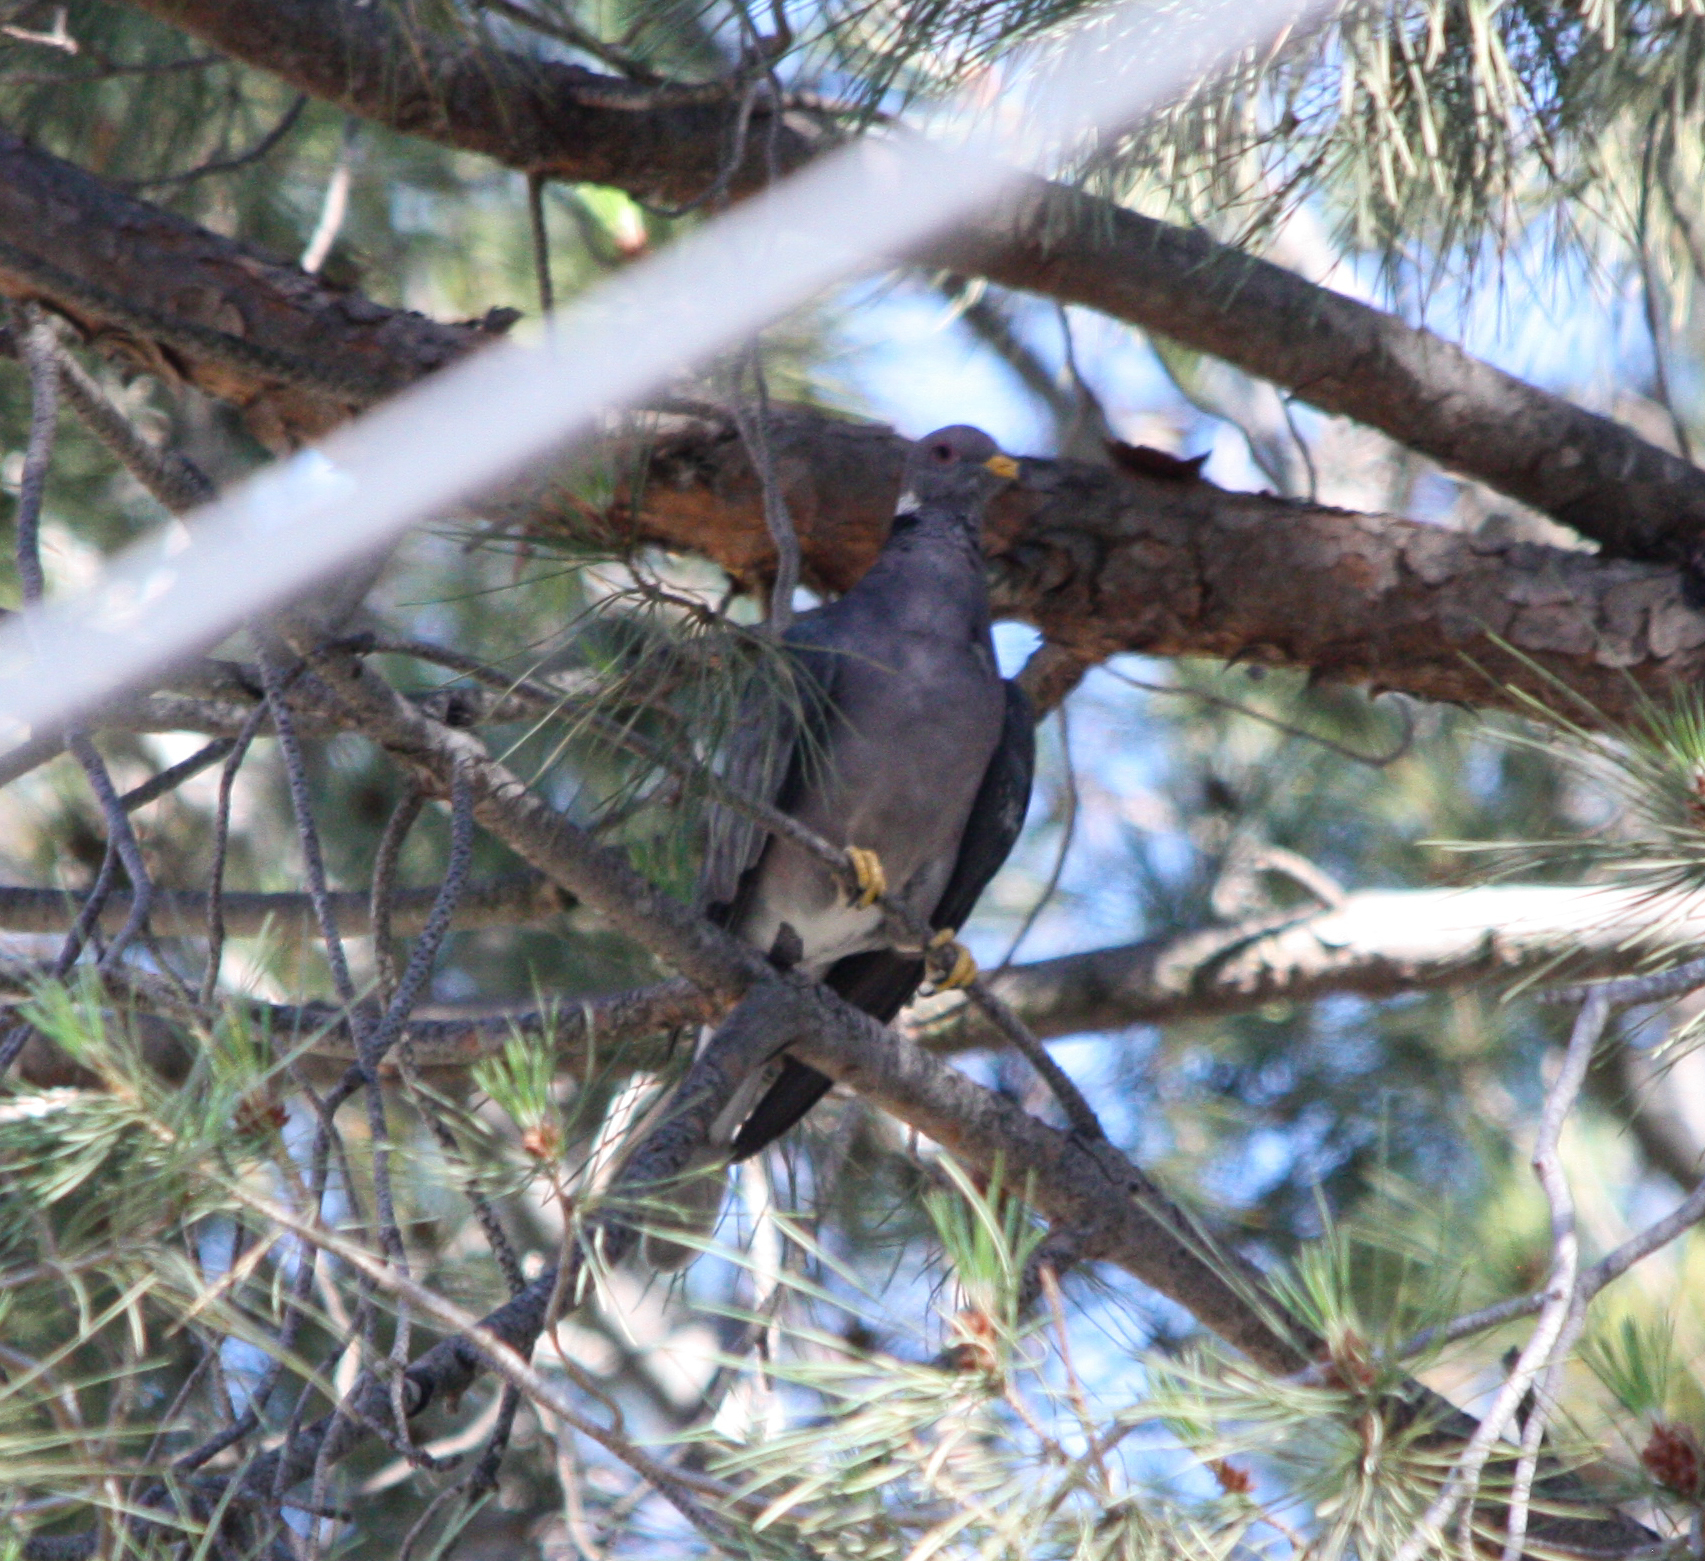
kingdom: Animalia
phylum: Chordata
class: Aves
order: Columbiformes
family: Columbidae
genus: Patagioenas
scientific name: Patagioenas fasciata
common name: Band-tailed pigeon
